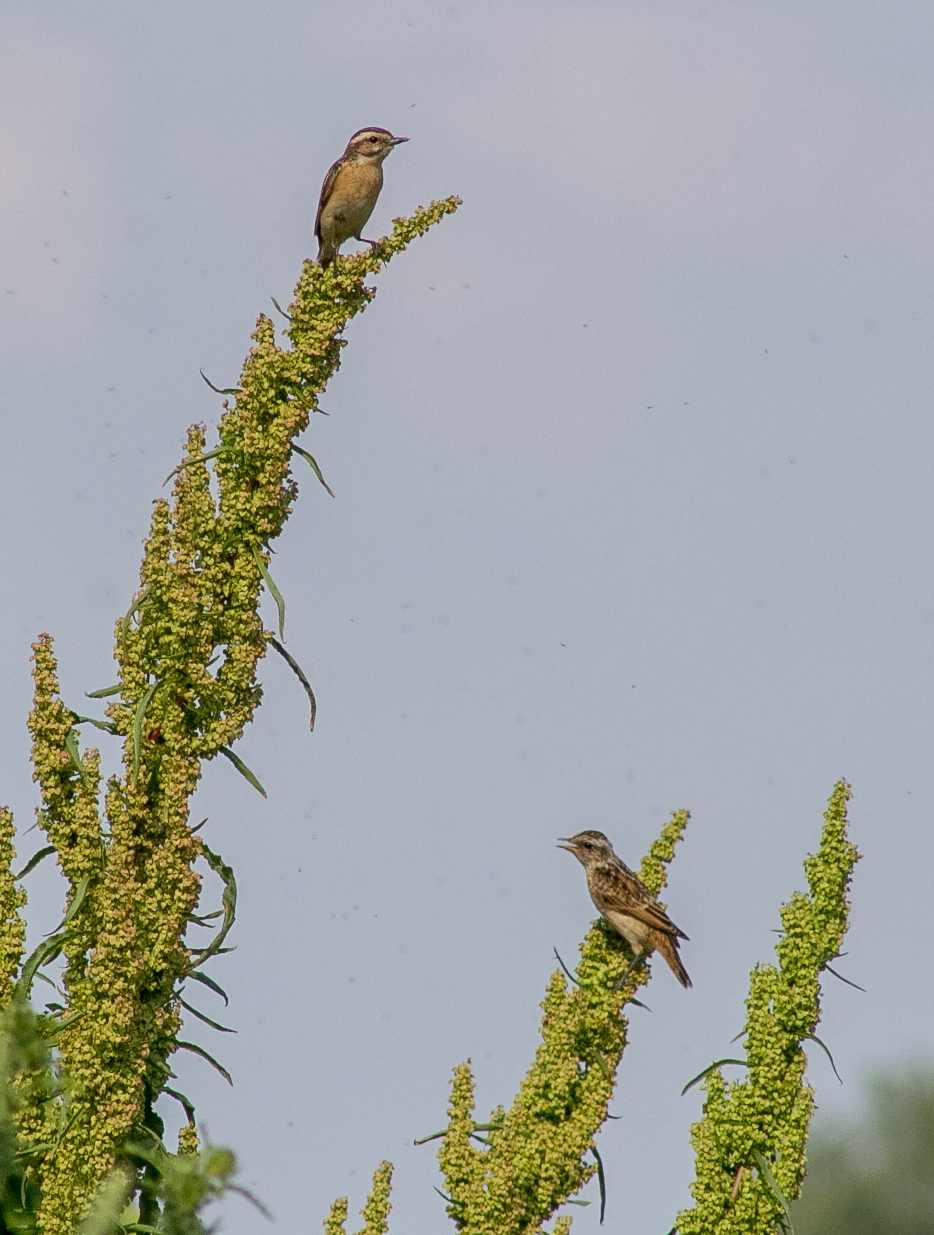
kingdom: Animalia
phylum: Chordata
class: Aves
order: Passeriformes
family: Muscicapidae
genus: Saxicola
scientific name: Saxicola rubetra
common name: Whinchat
